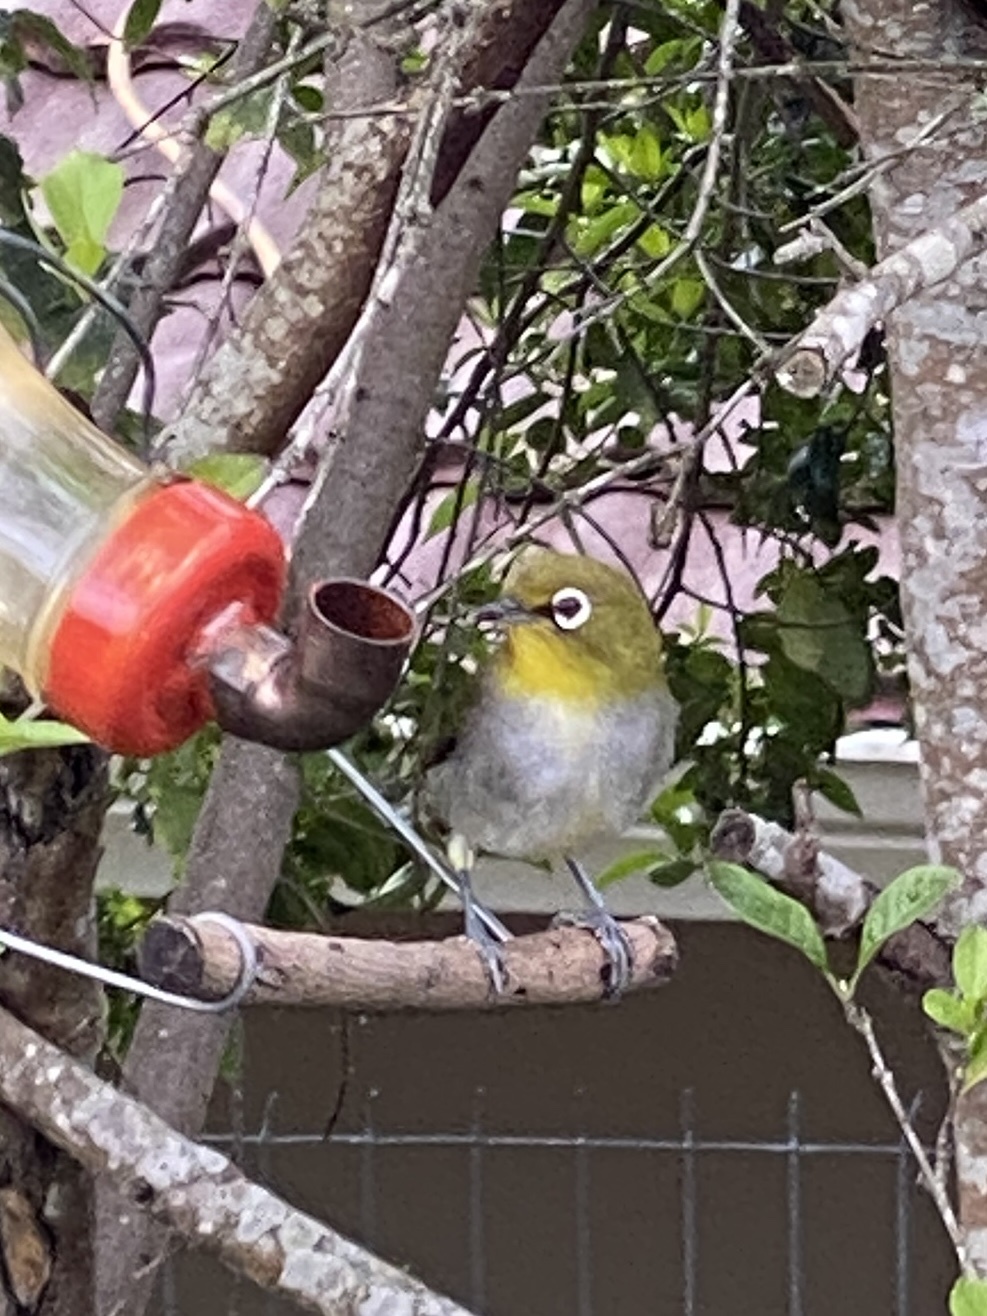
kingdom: Animalia
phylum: Chordata
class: Aves
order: Passeriformes
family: Zosteropidae
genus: Zosterops
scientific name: Zosterops virens
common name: Cape white-eye
